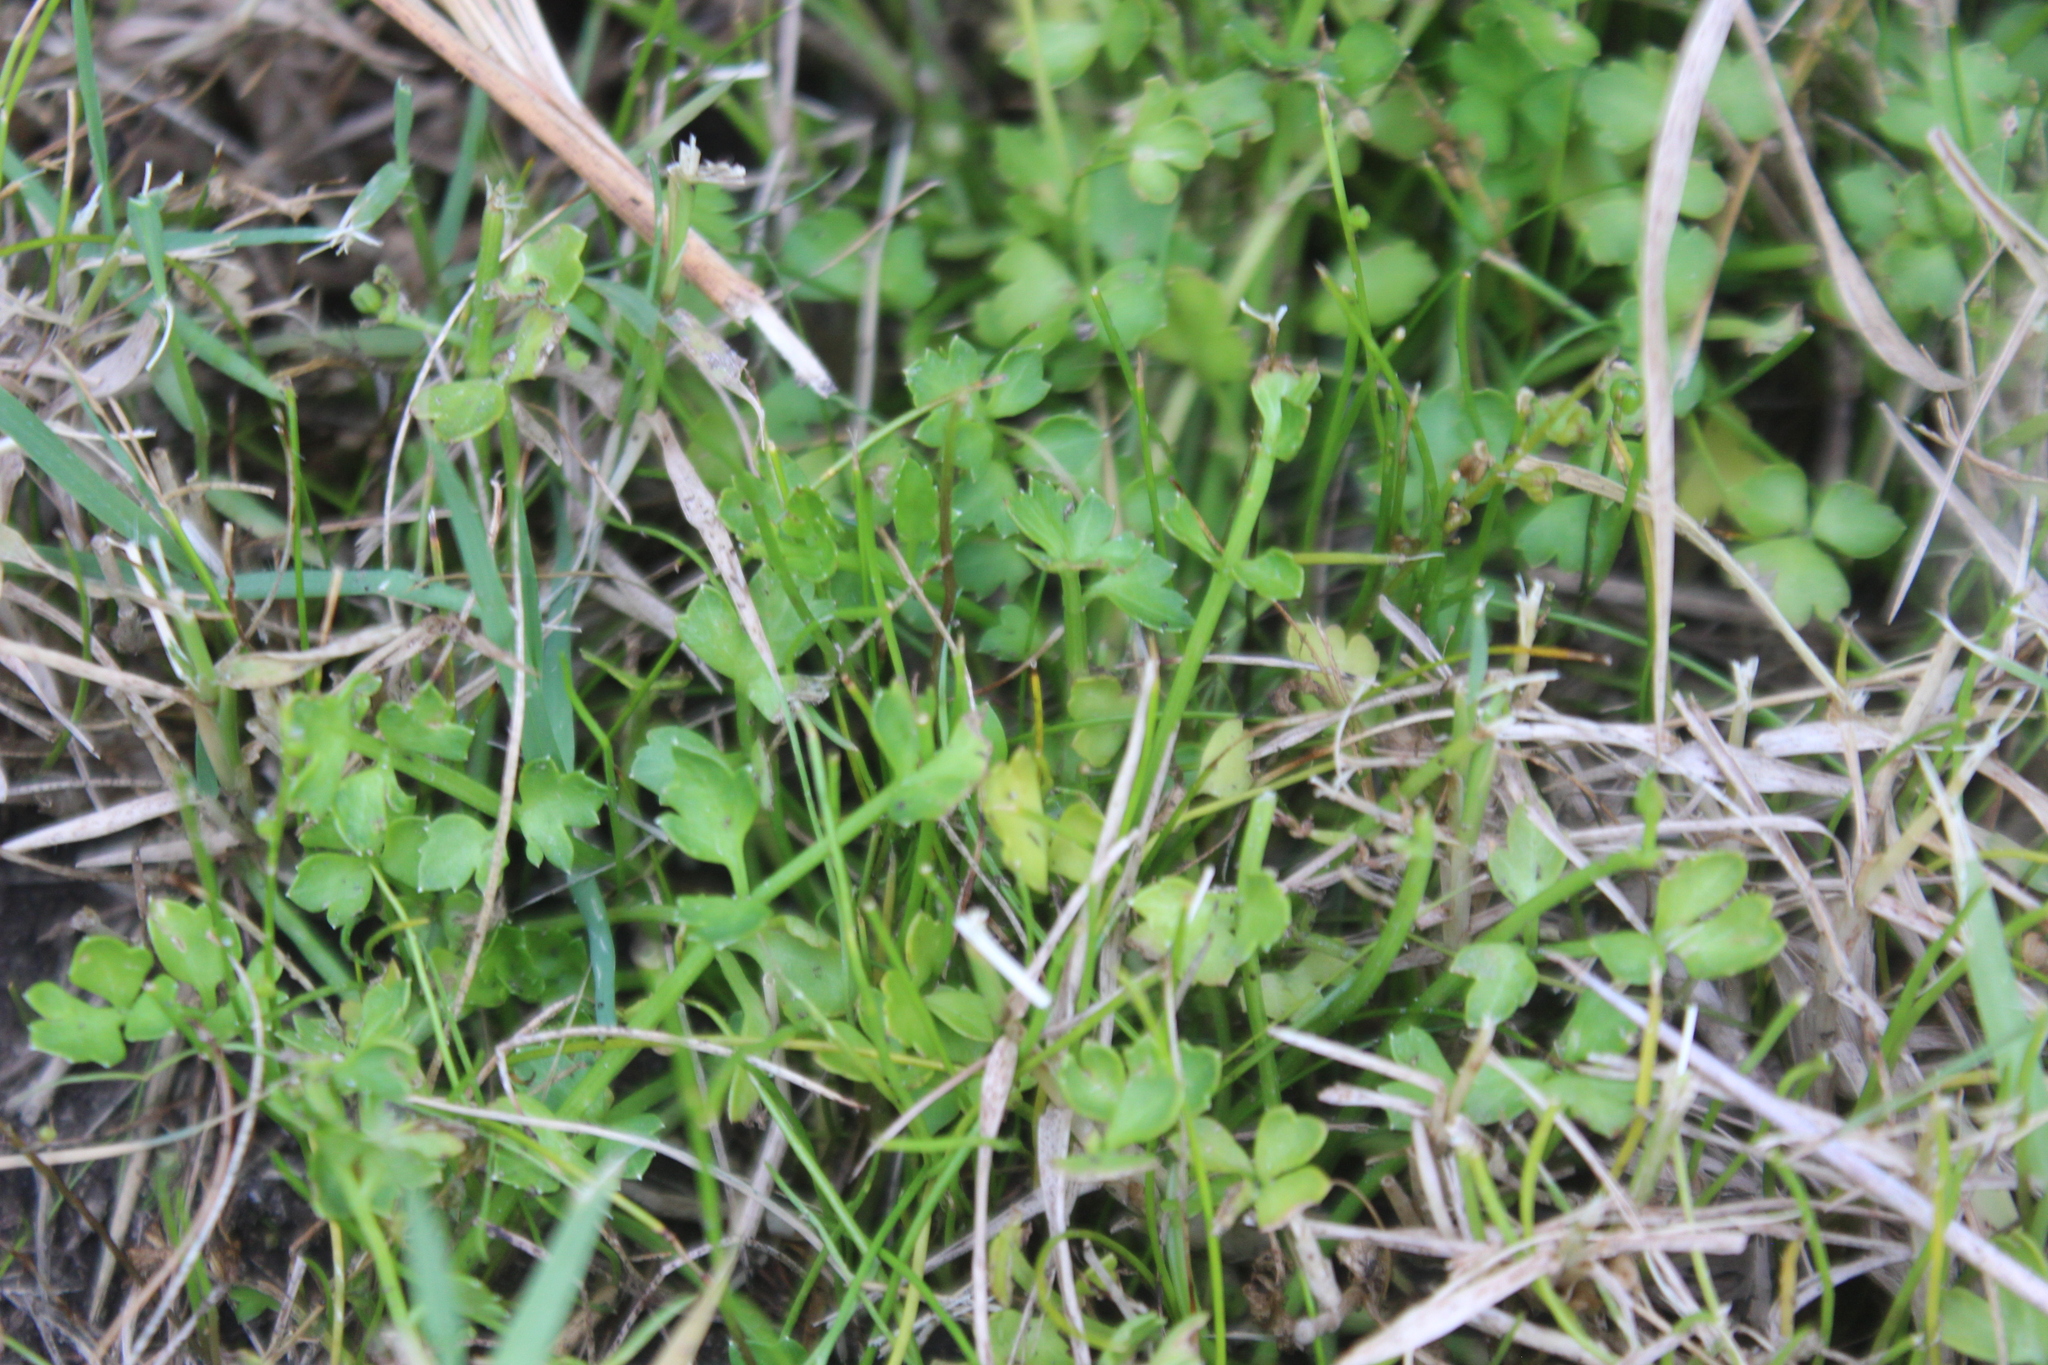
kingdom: Plantae
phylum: Tracheophyta
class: Magnoliopsida
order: Apiales
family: Apiaceae
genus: Apium
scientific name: Apium prostratum
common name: Prostrate marshwort
